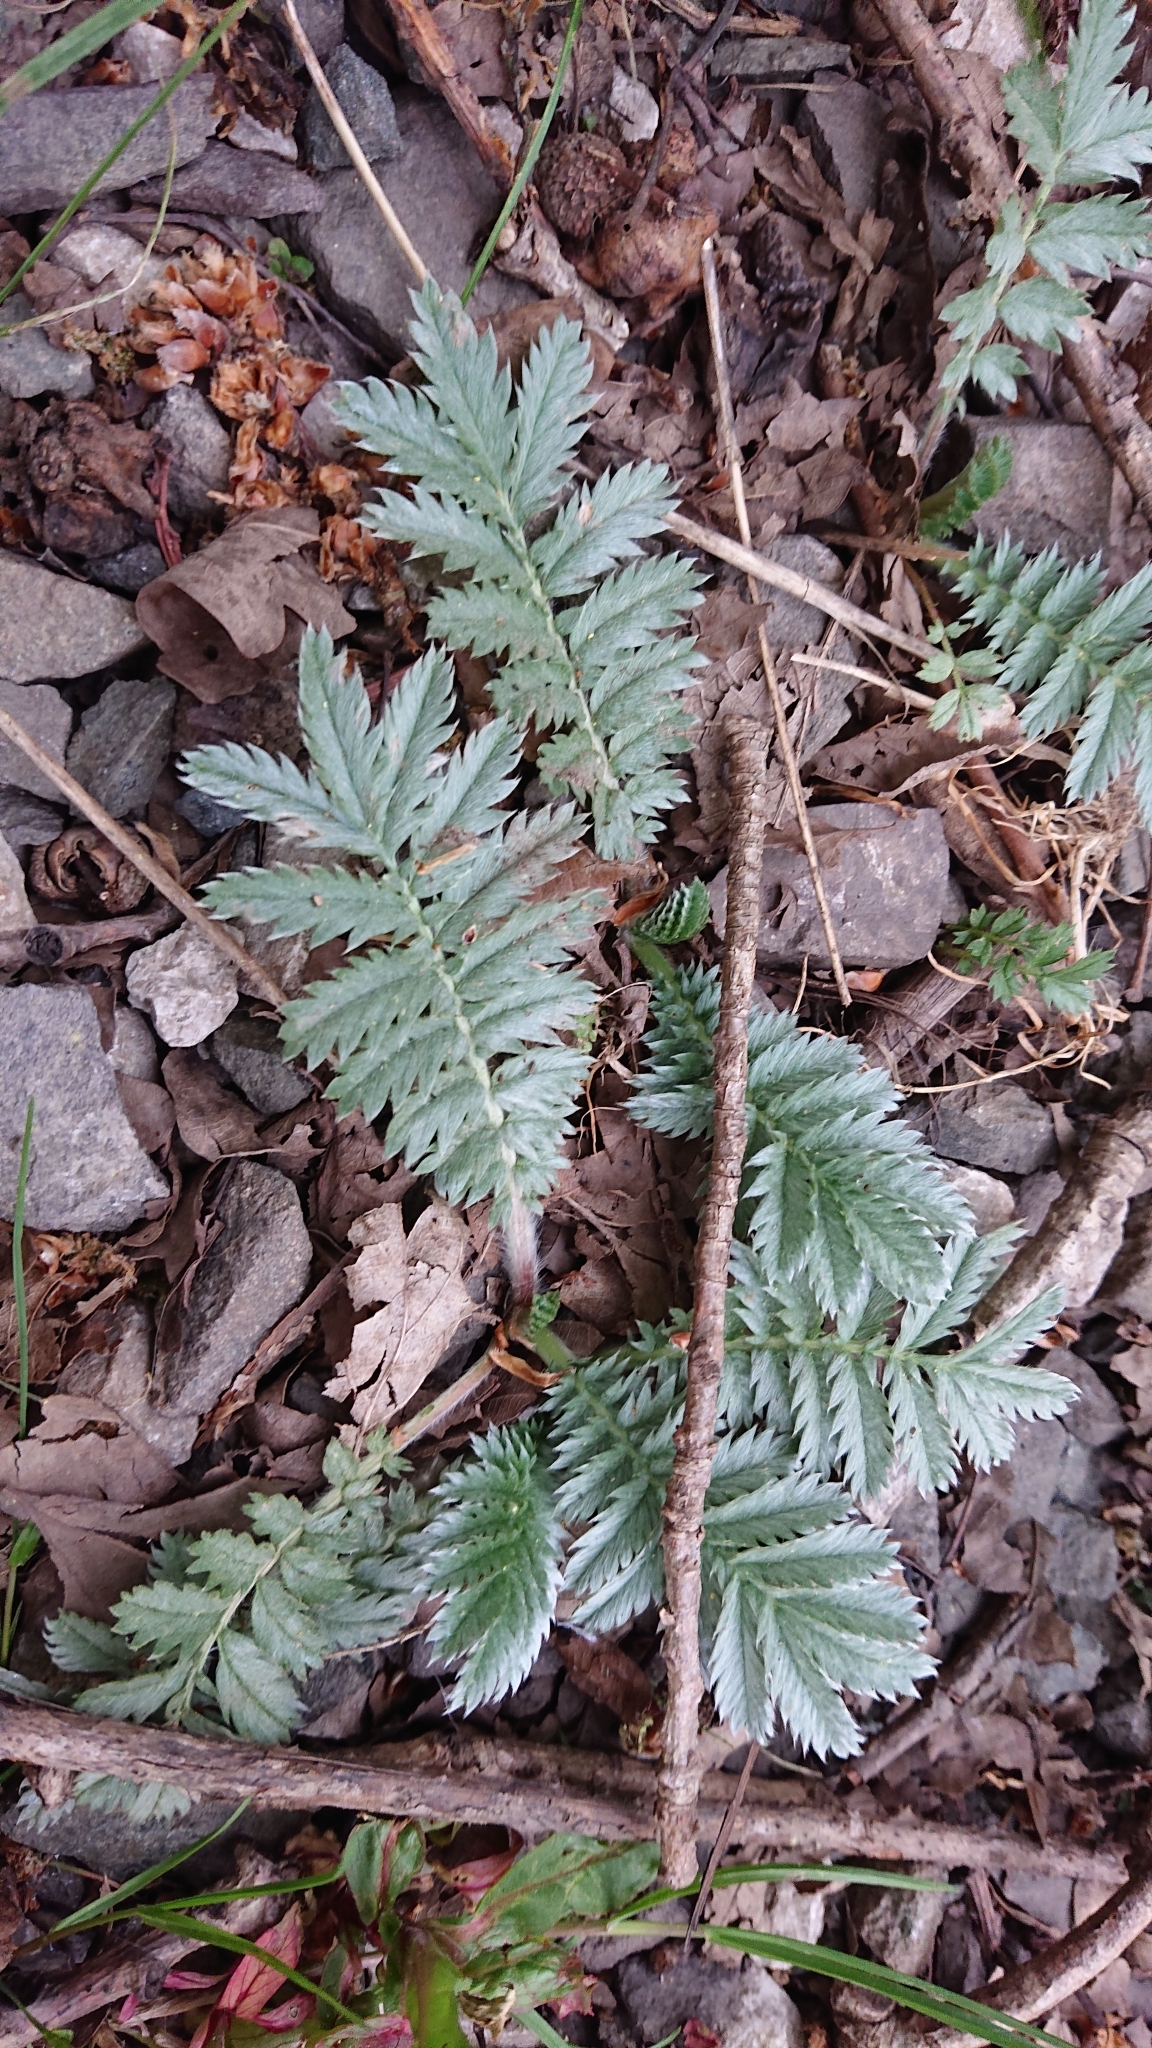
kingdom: Plantae
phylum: Tracheophyta
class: Magnoliopsida
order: Rosales
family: Rosaceae
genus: Argentina
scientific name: Argentina anserina
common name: Common silverweed
